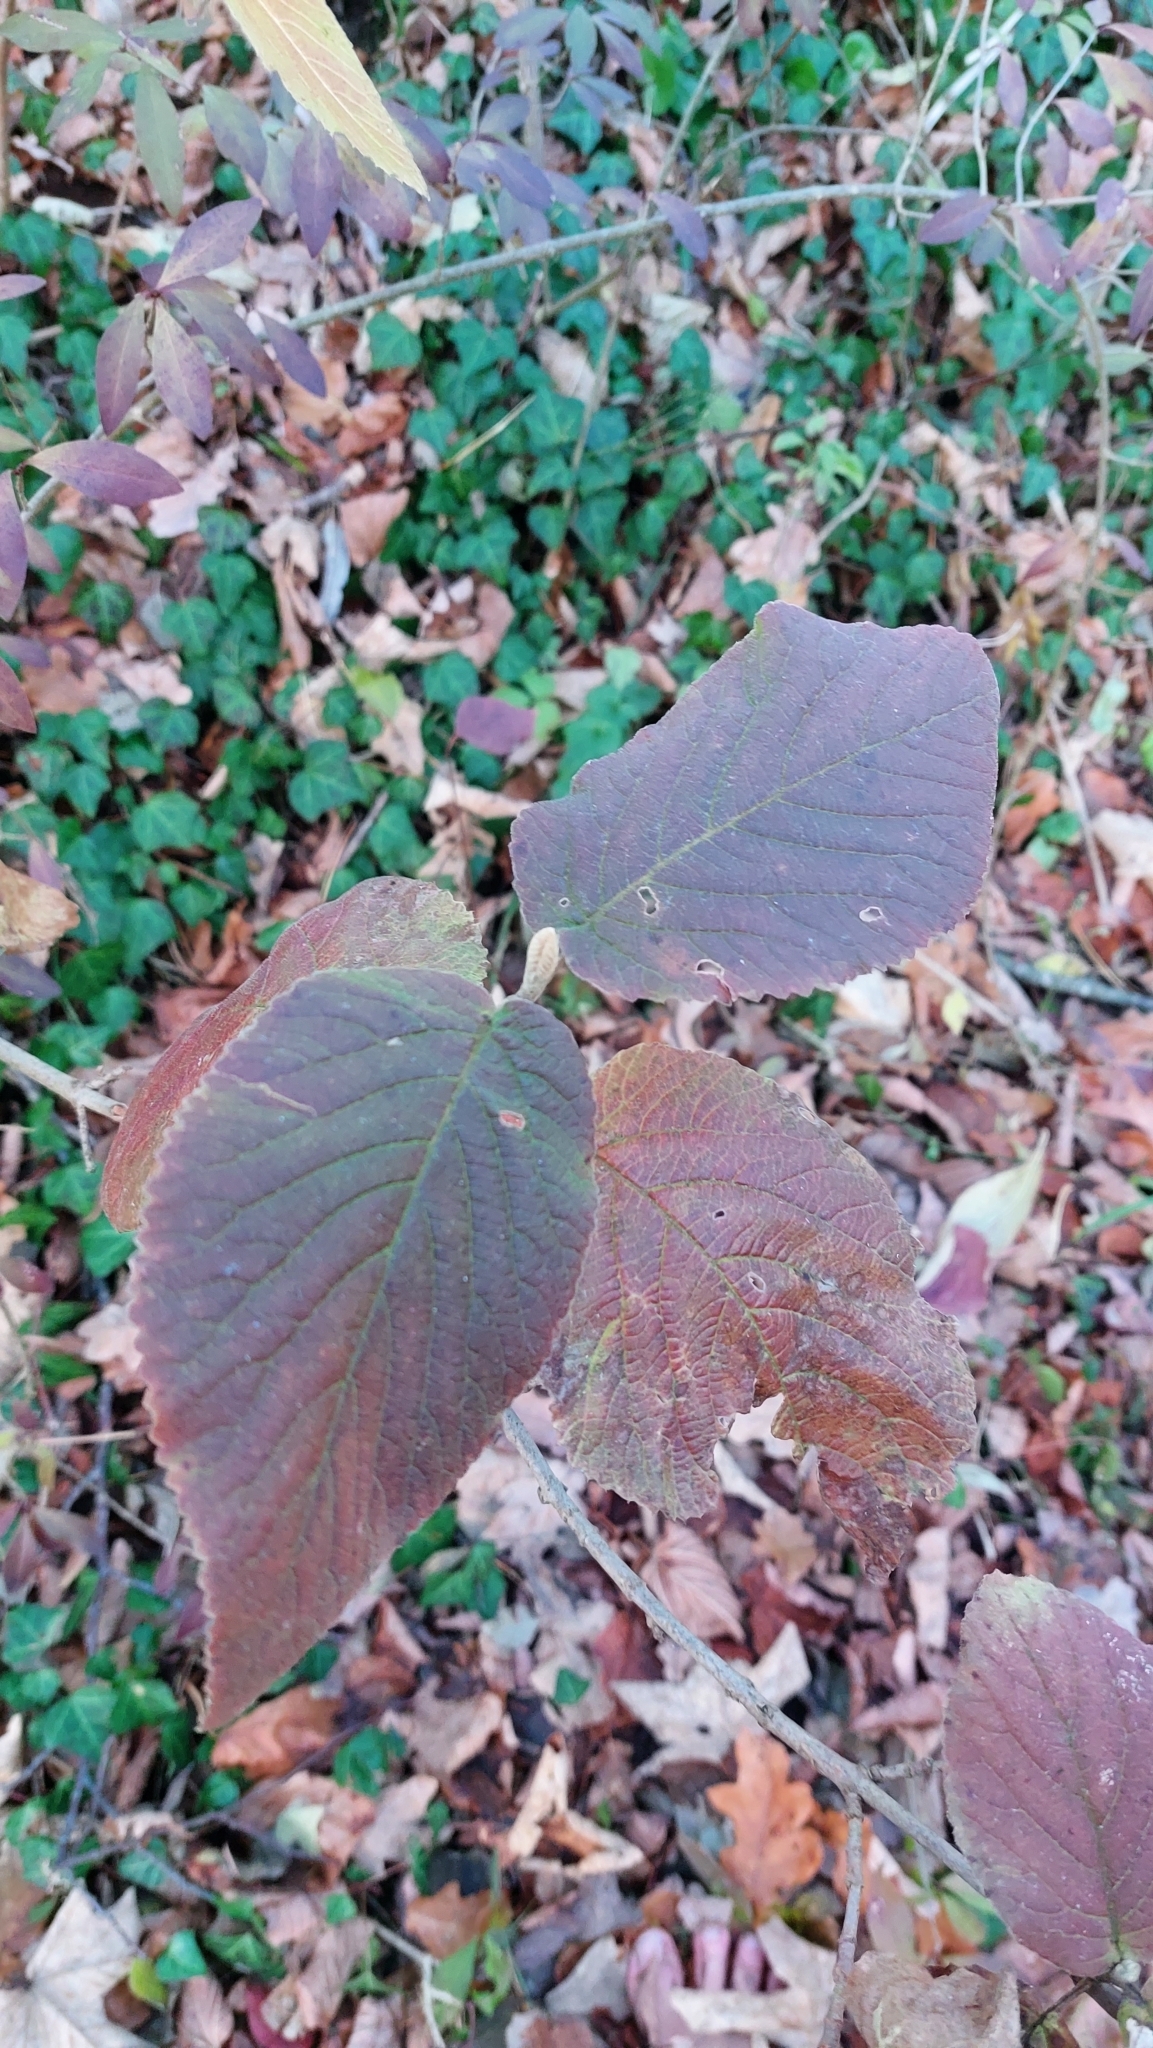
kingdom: Plantae
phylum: Tracheophyta
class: Magnoliopsida
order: Dipsacales
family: Viburnaceae
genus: Viburnum
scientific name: Viburnum lantana
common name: Wayfaring tree
